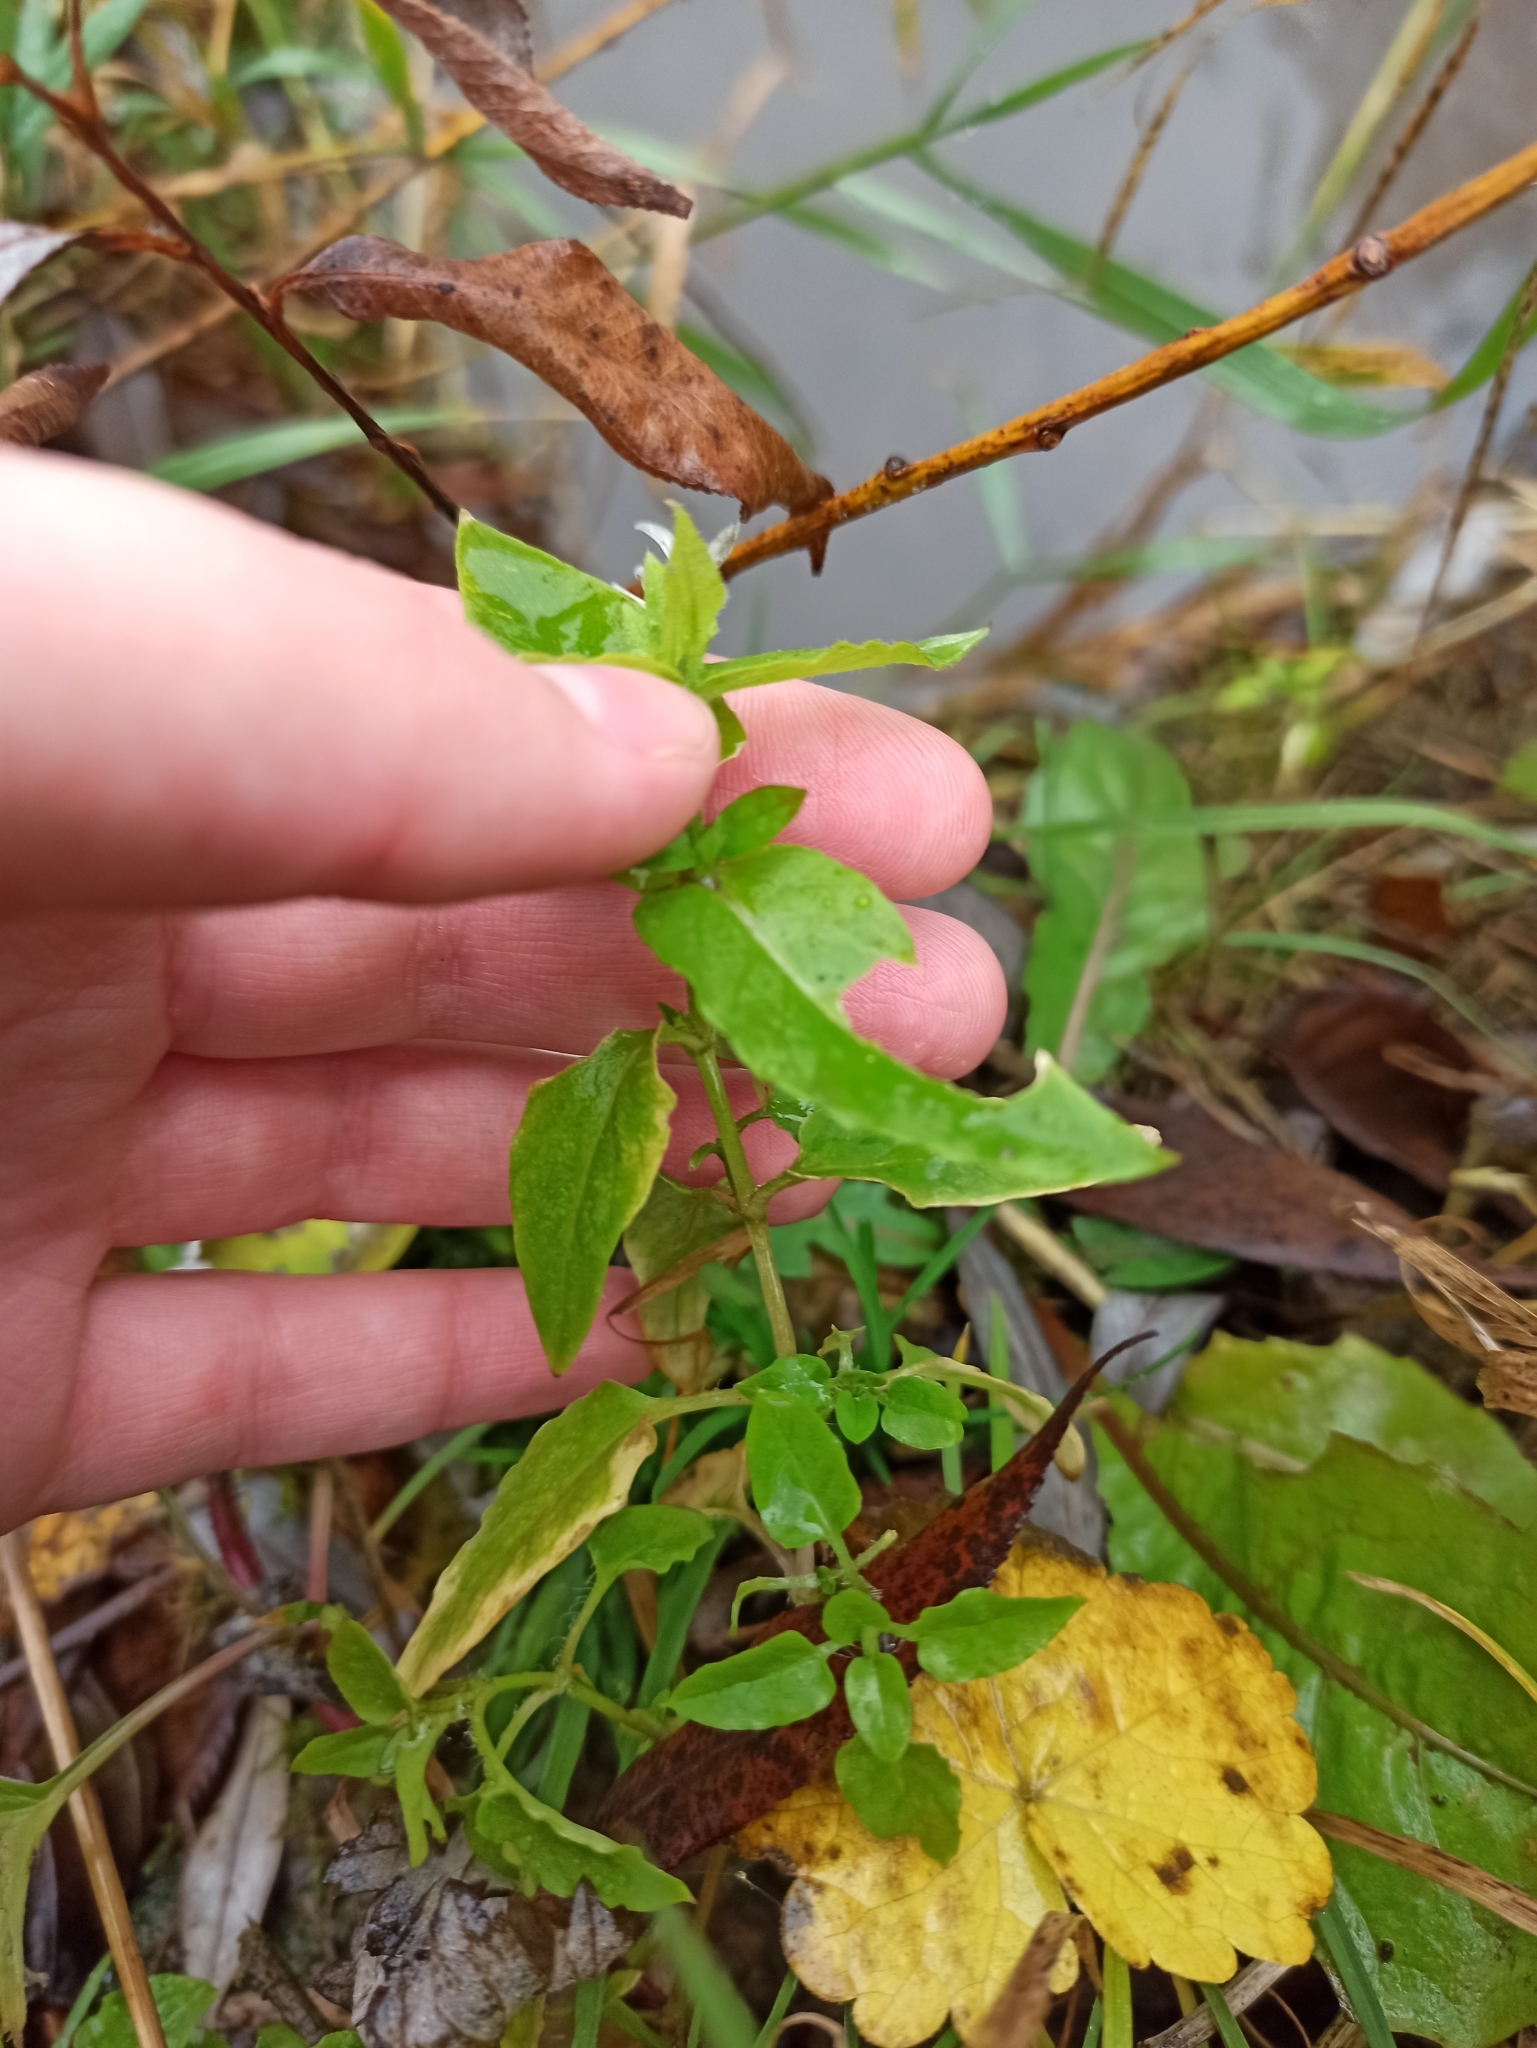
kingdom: Plantae
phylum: Tracheophyta
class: Magnoliopsida
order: Caryophyllales
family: Caryophyllaceae
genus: Stellaria
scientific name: Stellaria aquatica
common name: Water chickweed
